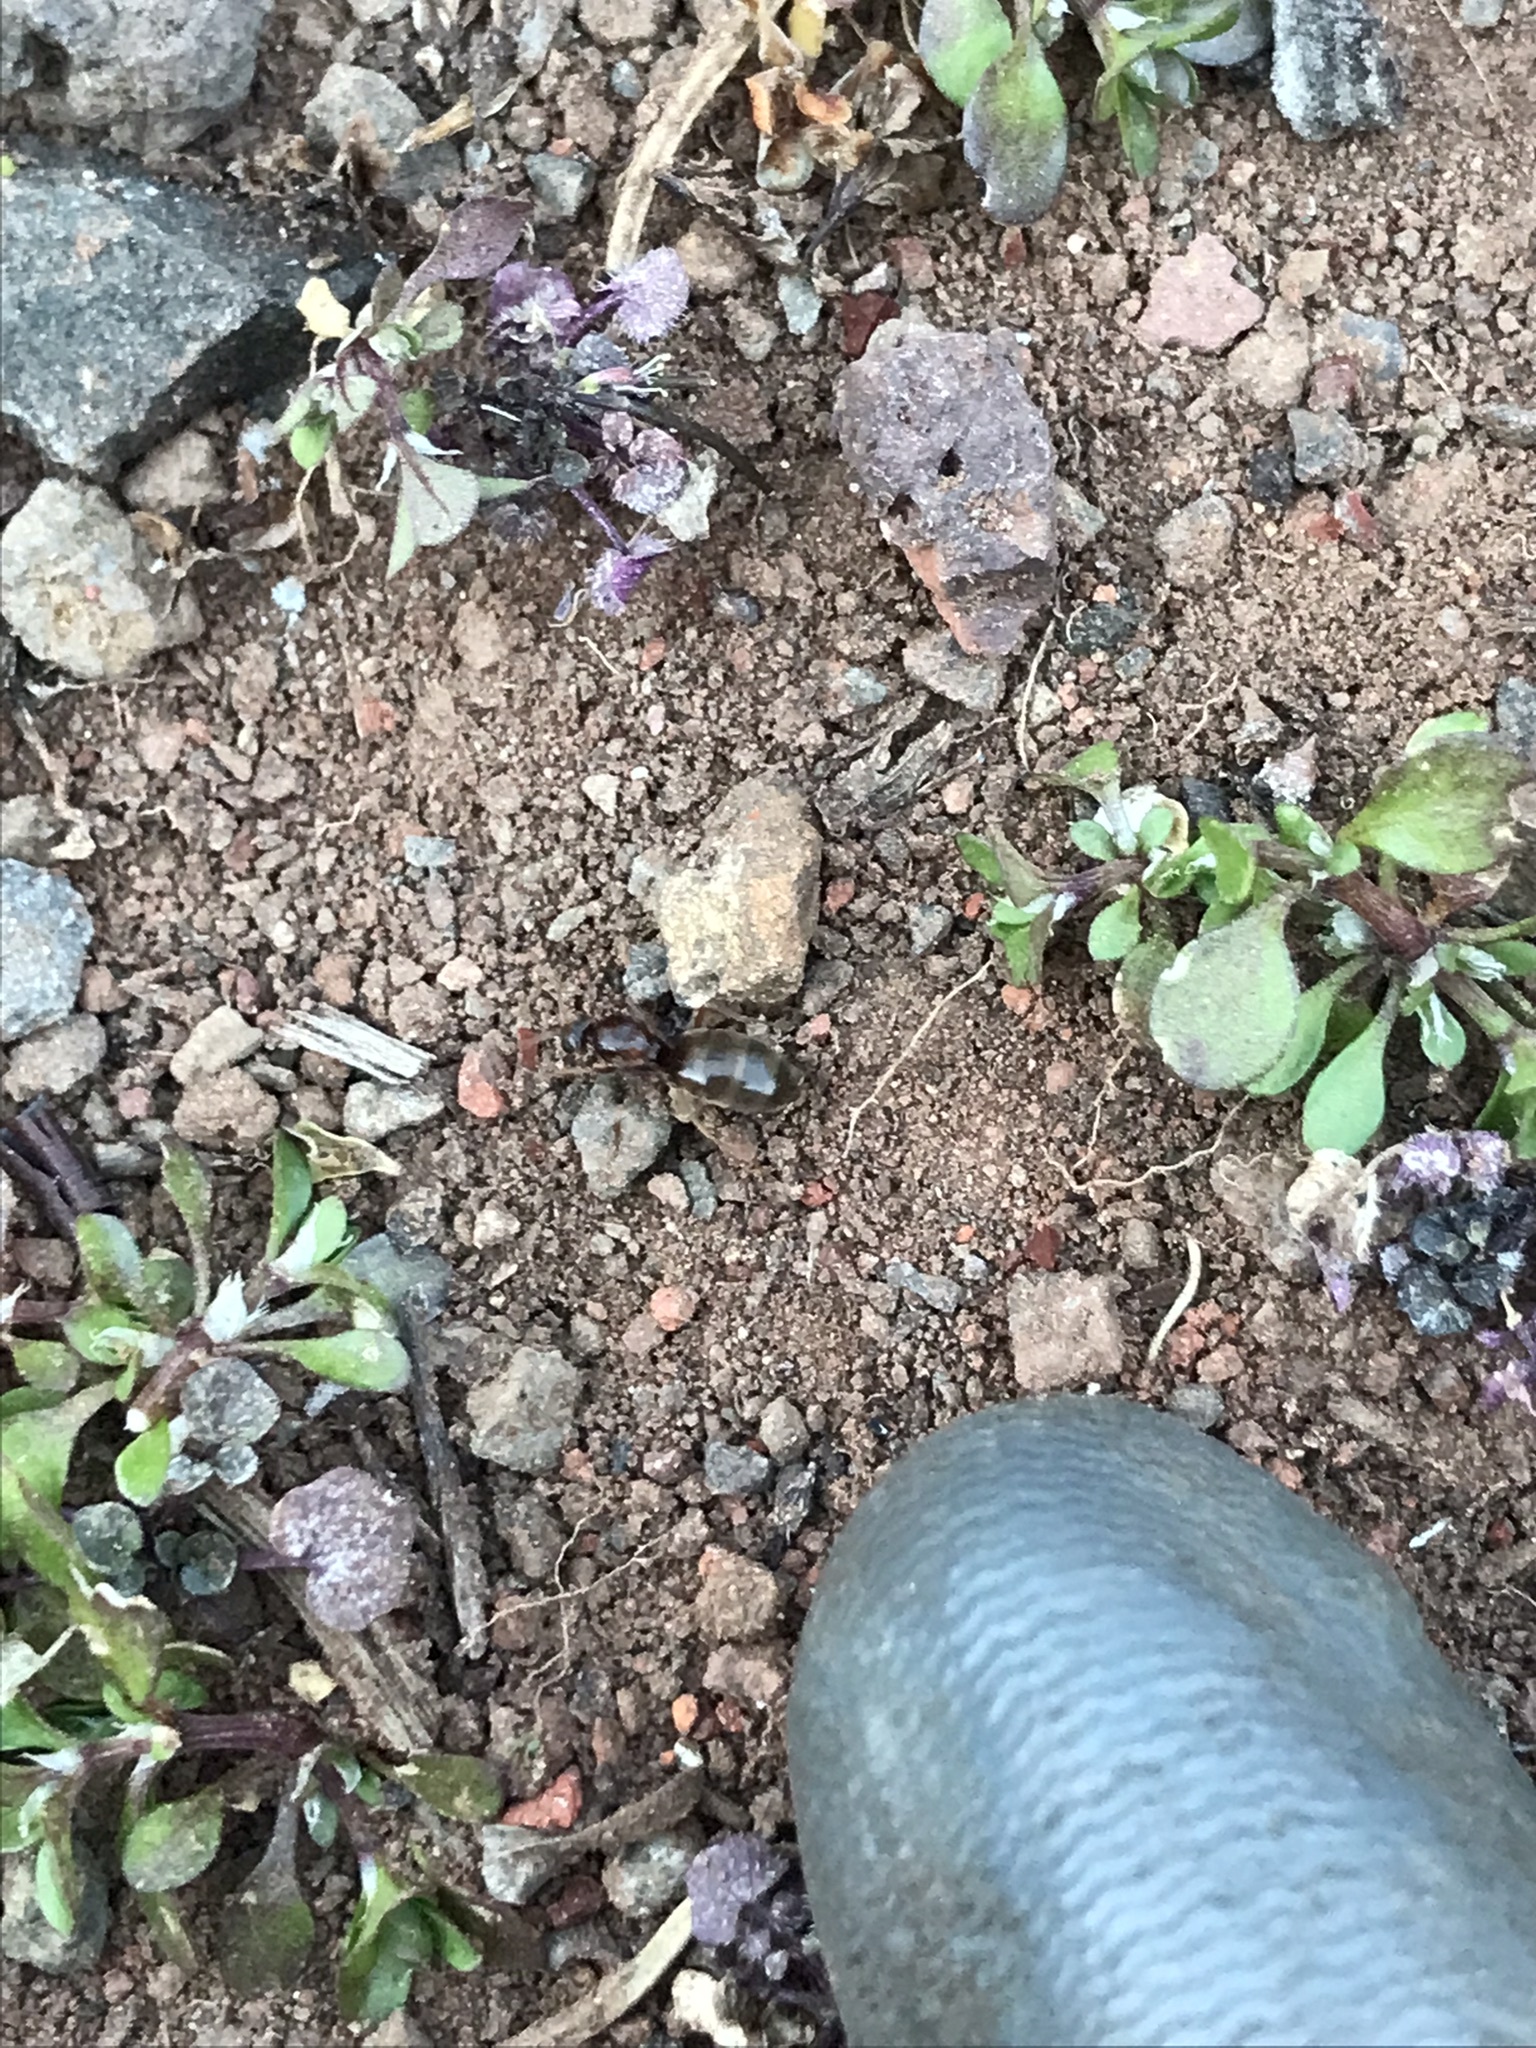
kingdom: Animalia
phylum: Arthropoda
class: Insecta
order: Hymenoptera
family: Formicidae
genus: Prenolepis
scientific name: Prenolepis imparis
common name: Small honey ant
